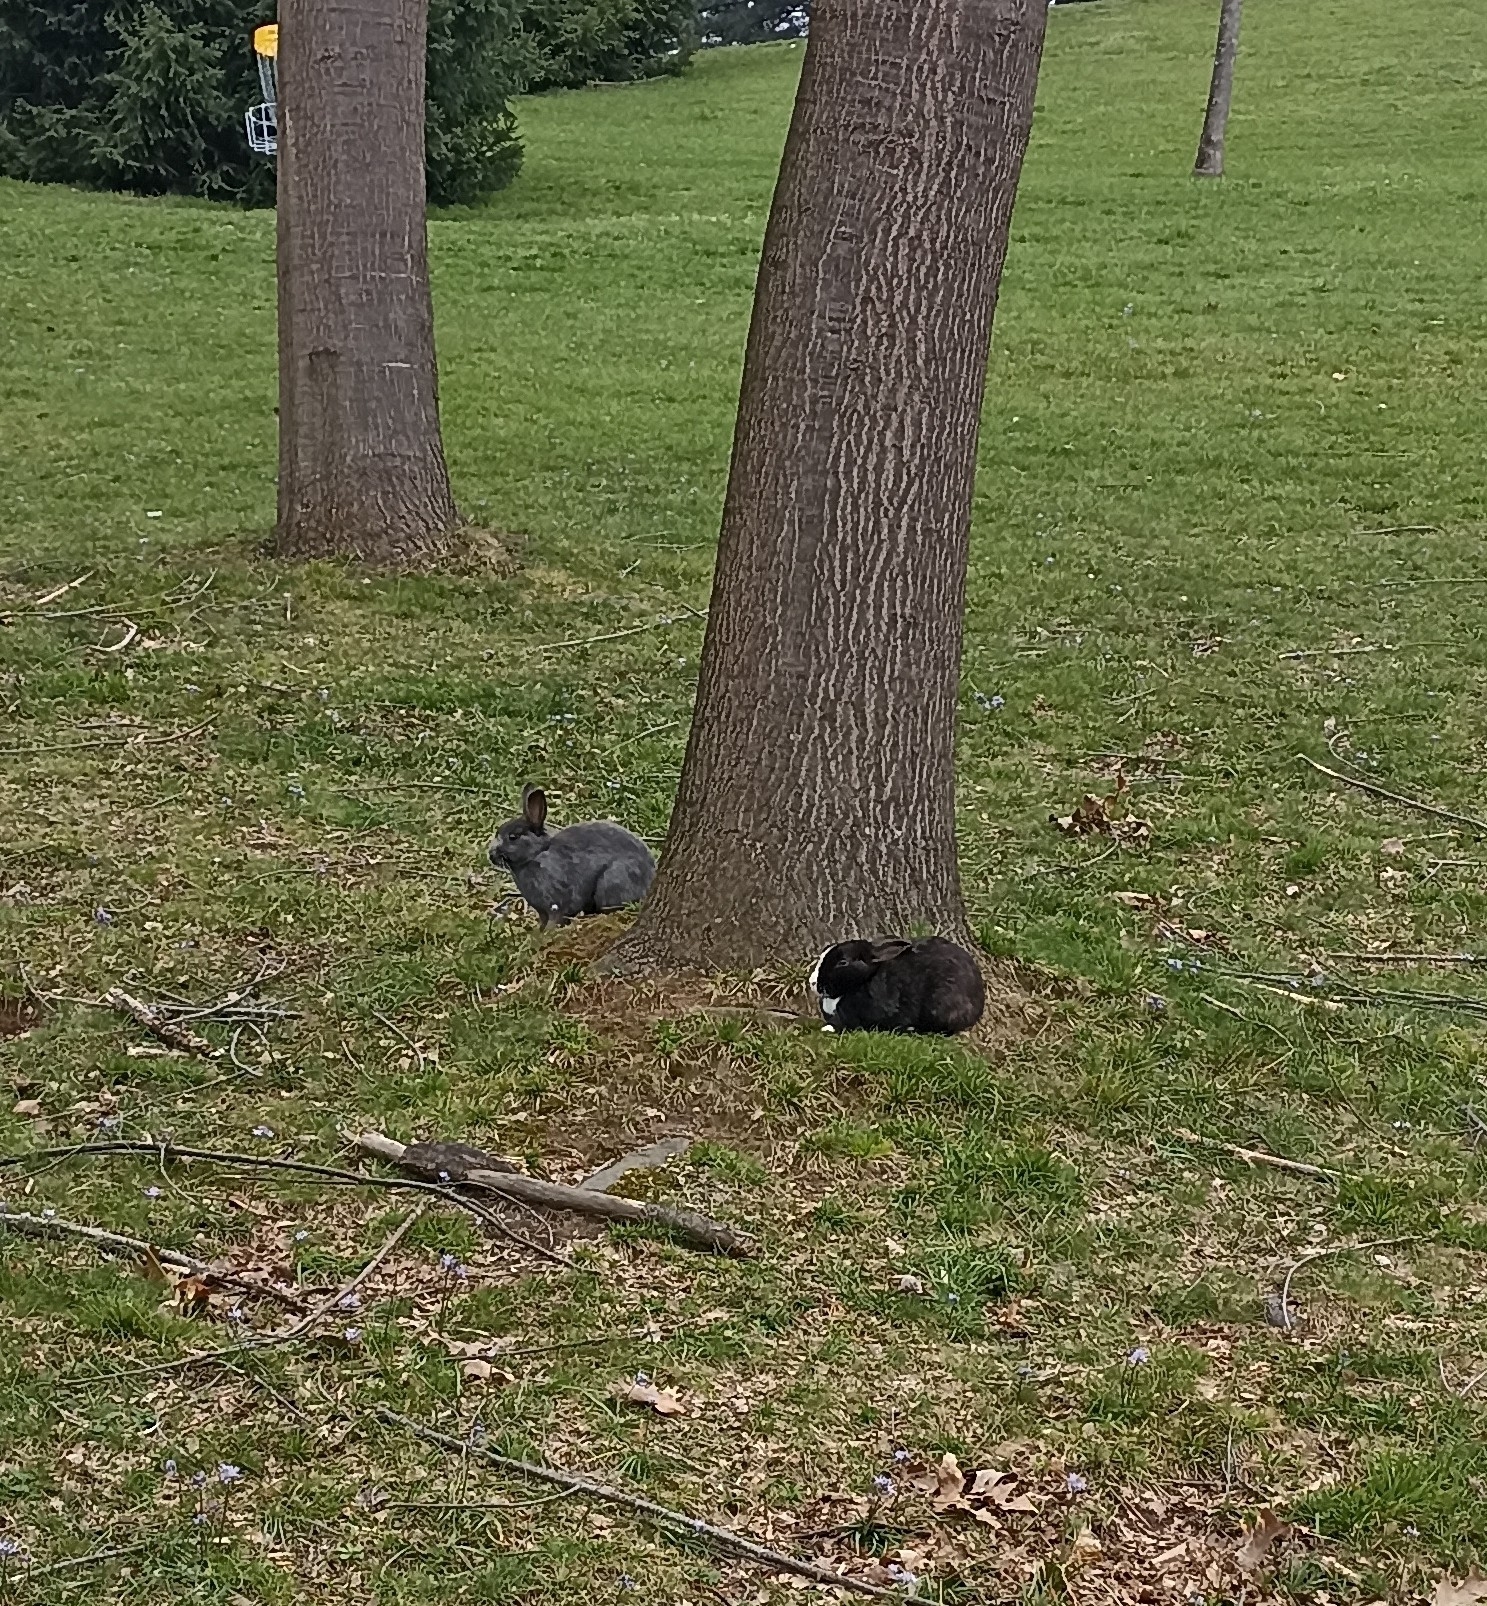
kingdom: Animalia
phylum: Chordata
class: Mammalia
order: Lagomorpha
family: Leporidae
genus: Oryctolagus
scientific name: Oryctolagus cuniculus
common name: European rabbit
